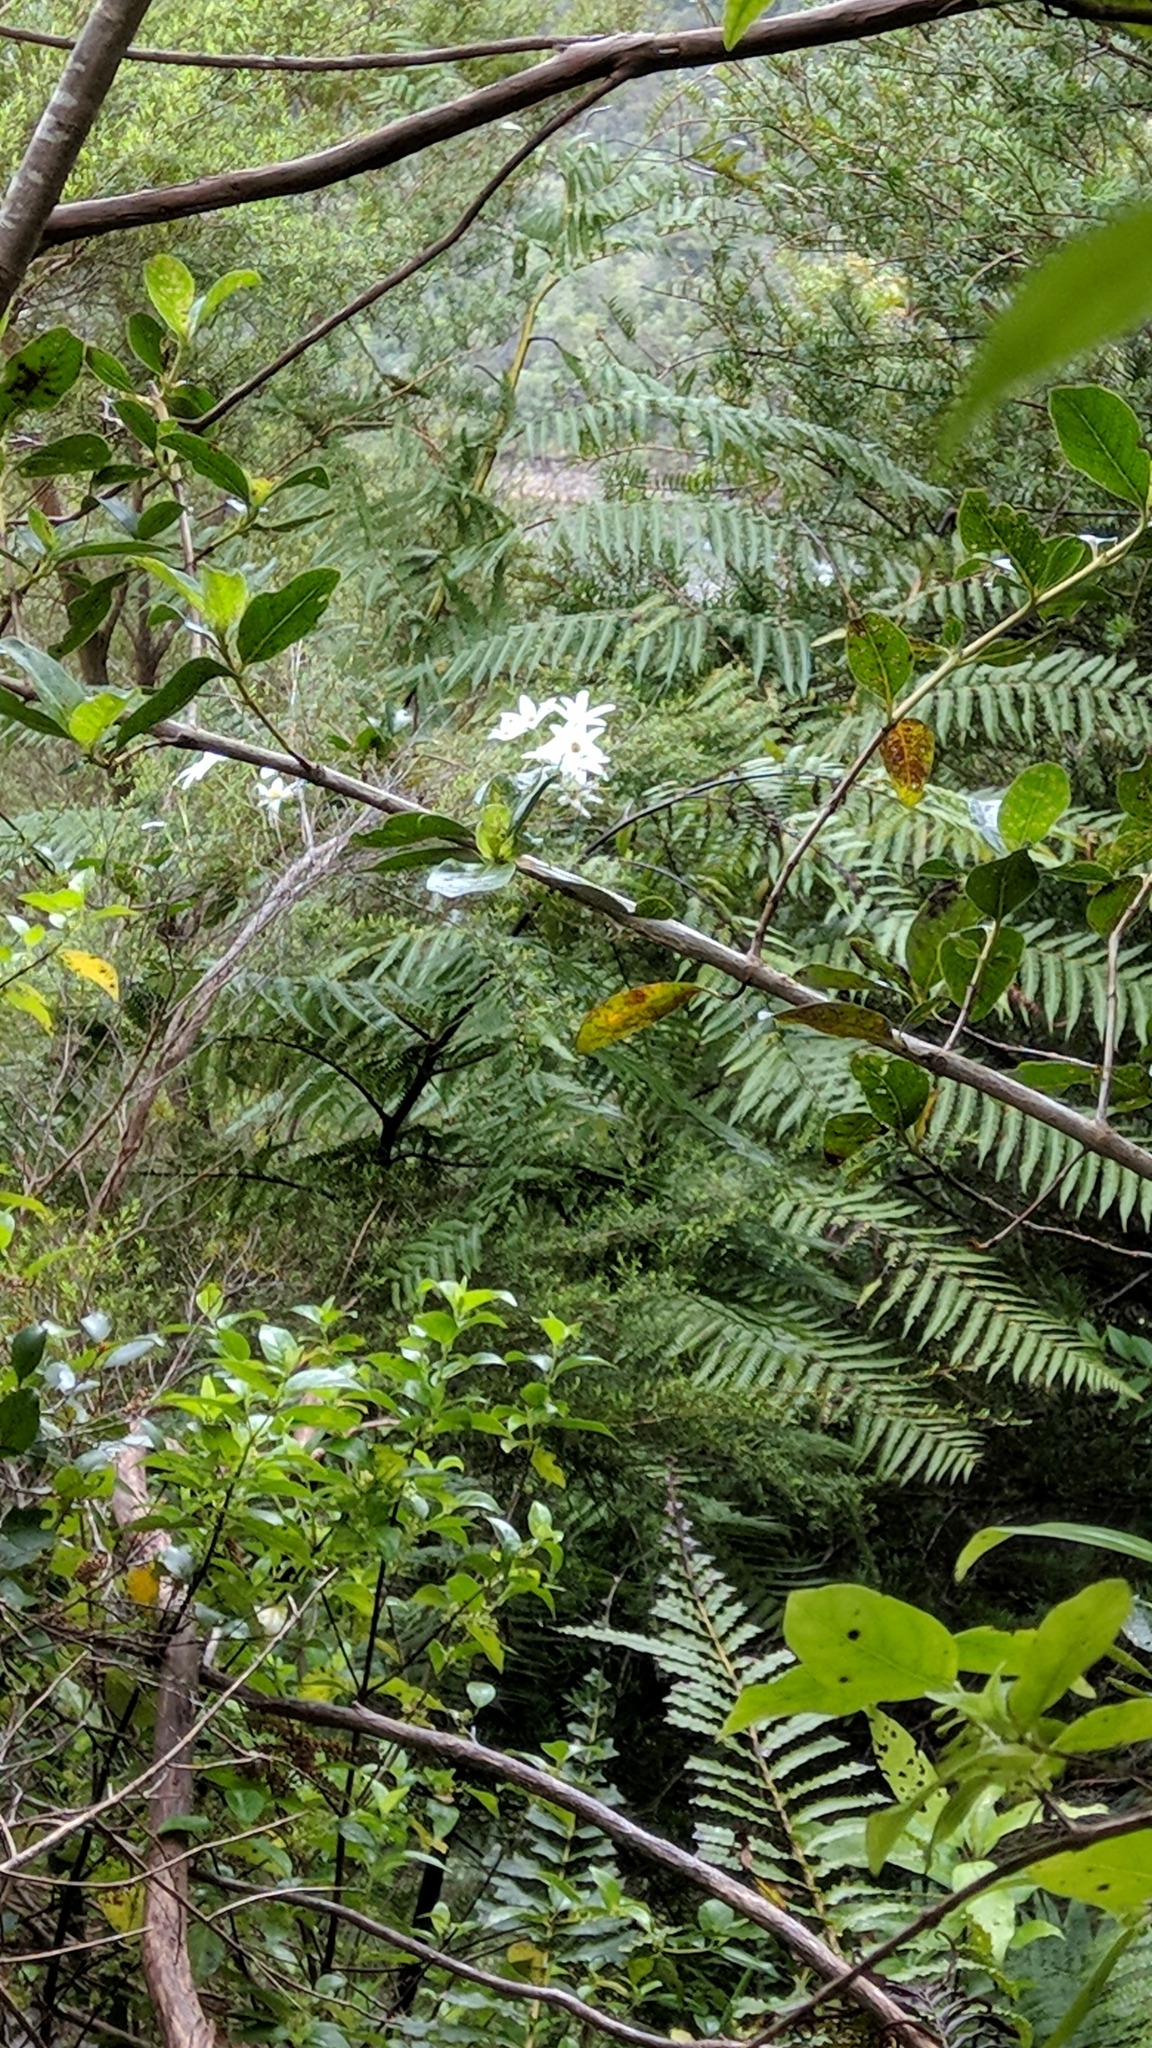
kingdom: Plantae
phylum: Tracheophyta
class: Magnoliopsida
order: Ranunculales
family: Ranunculaceae
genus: Clematis
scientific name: Clematis paniculata
